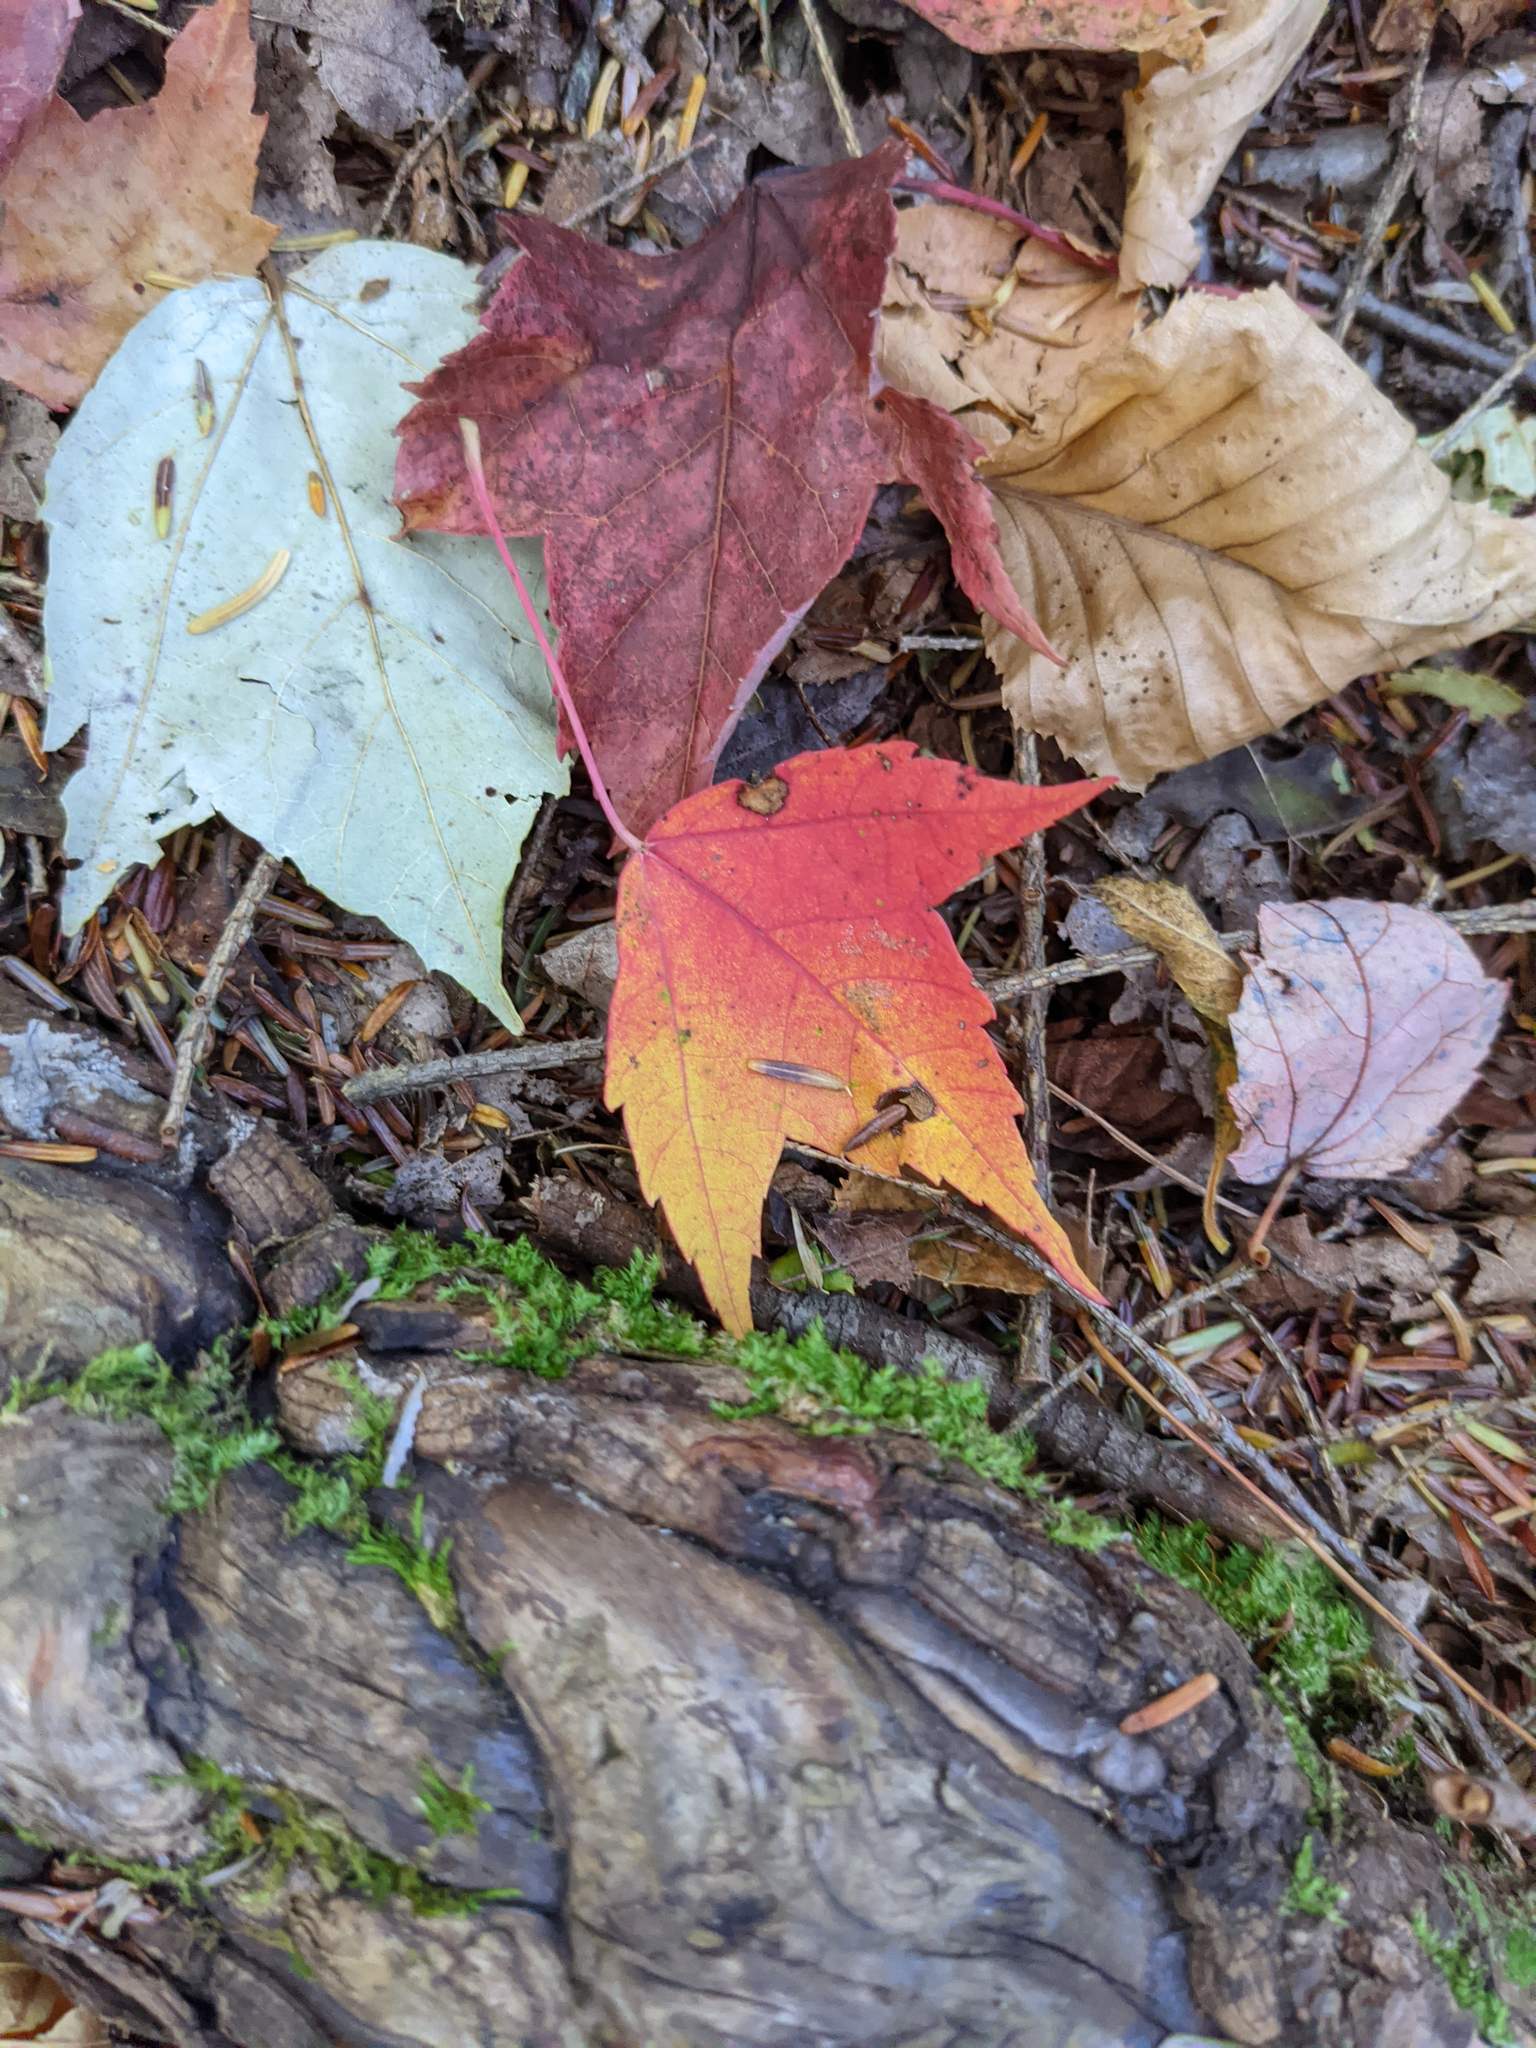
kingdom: Plantae
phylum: Tracheophyta
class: Magnoliopsida
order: Sapindales
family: Sapindaceae
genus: Acer
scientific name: Acer rubrum
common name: Red maple
